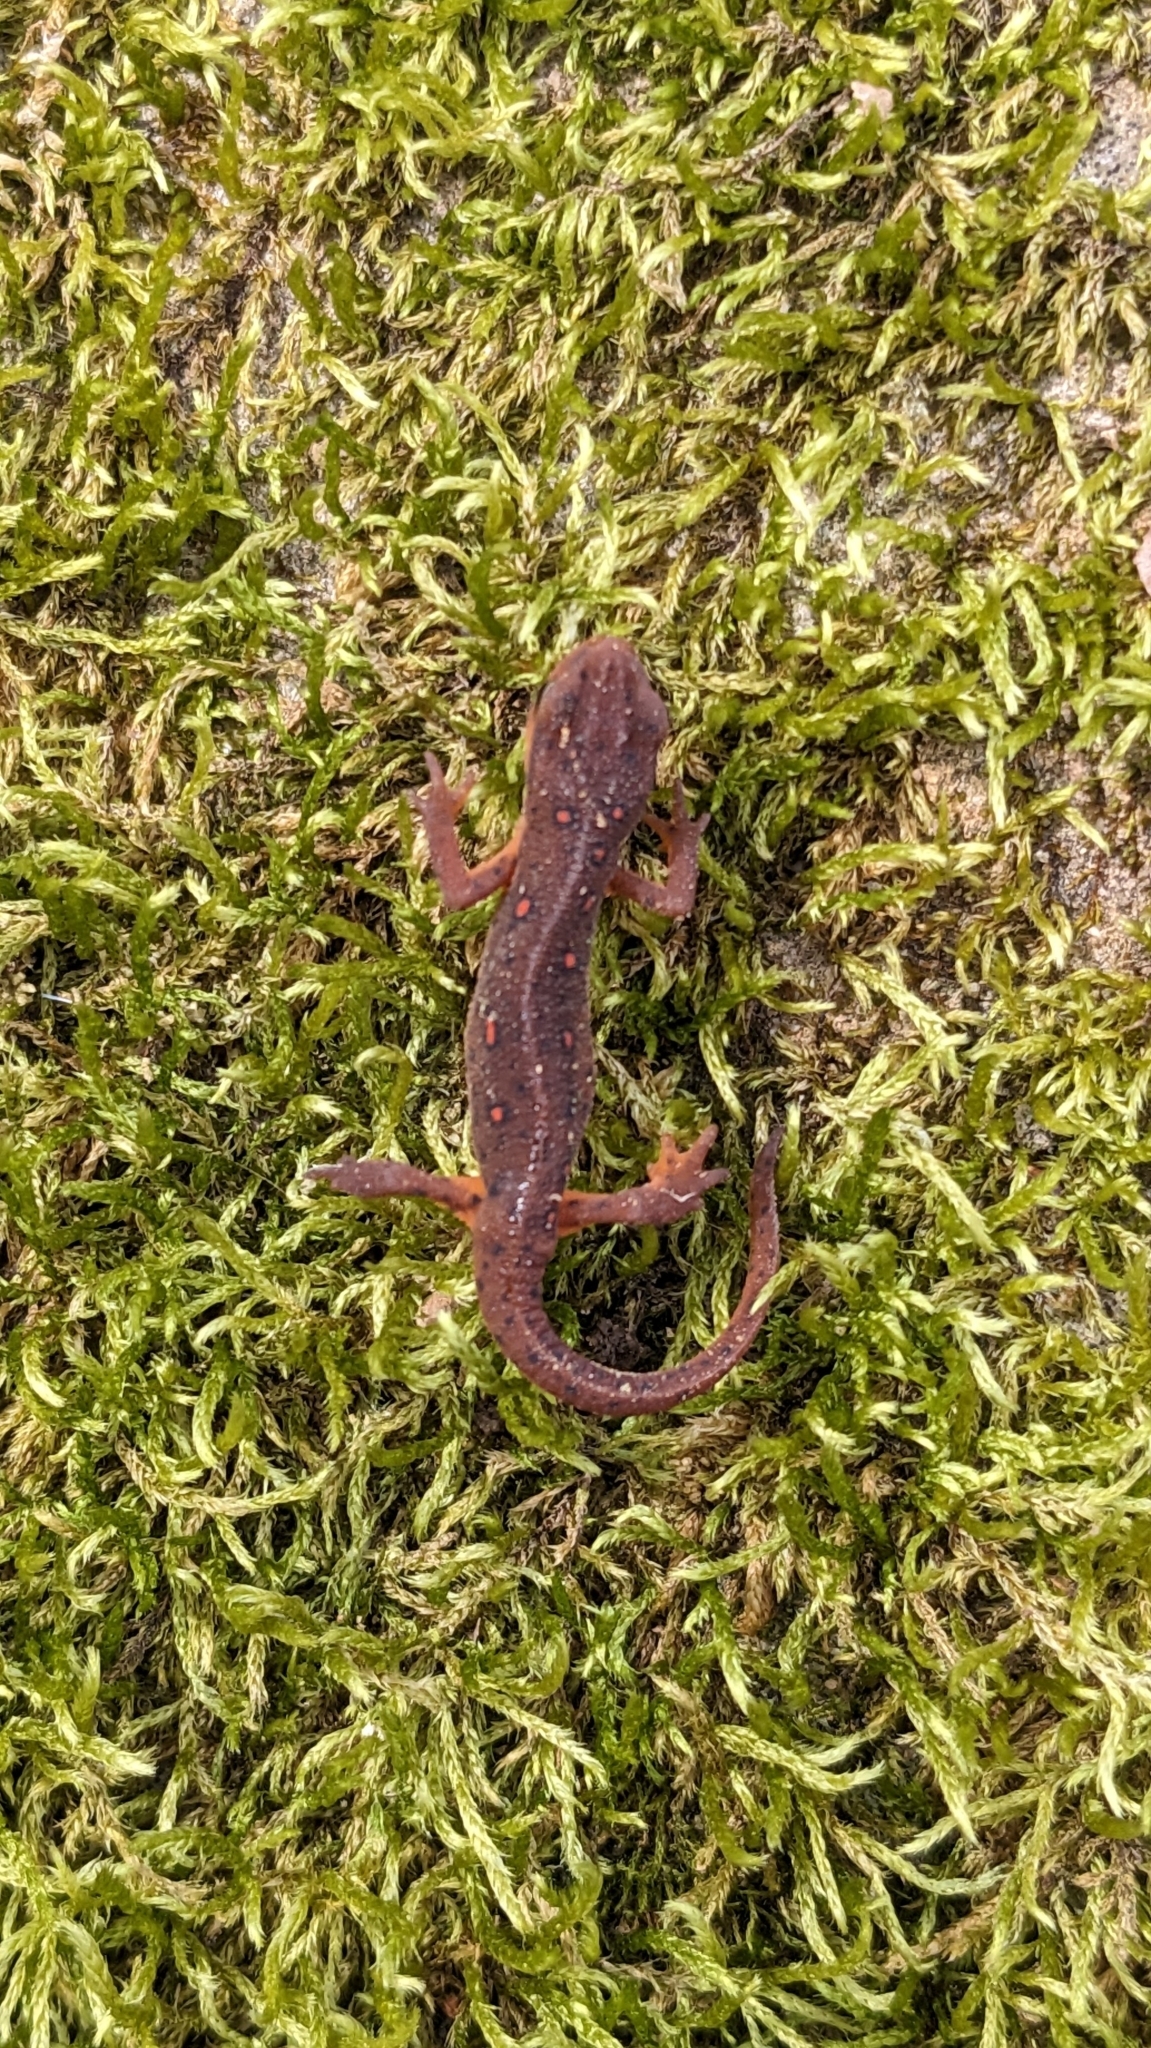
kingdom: Animalia
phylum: Chordata
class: Amphibia
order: Caudata
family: Salamandridae
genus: Notophthalmus
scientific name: Notophthalmus viridescens
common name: Eastern newt
